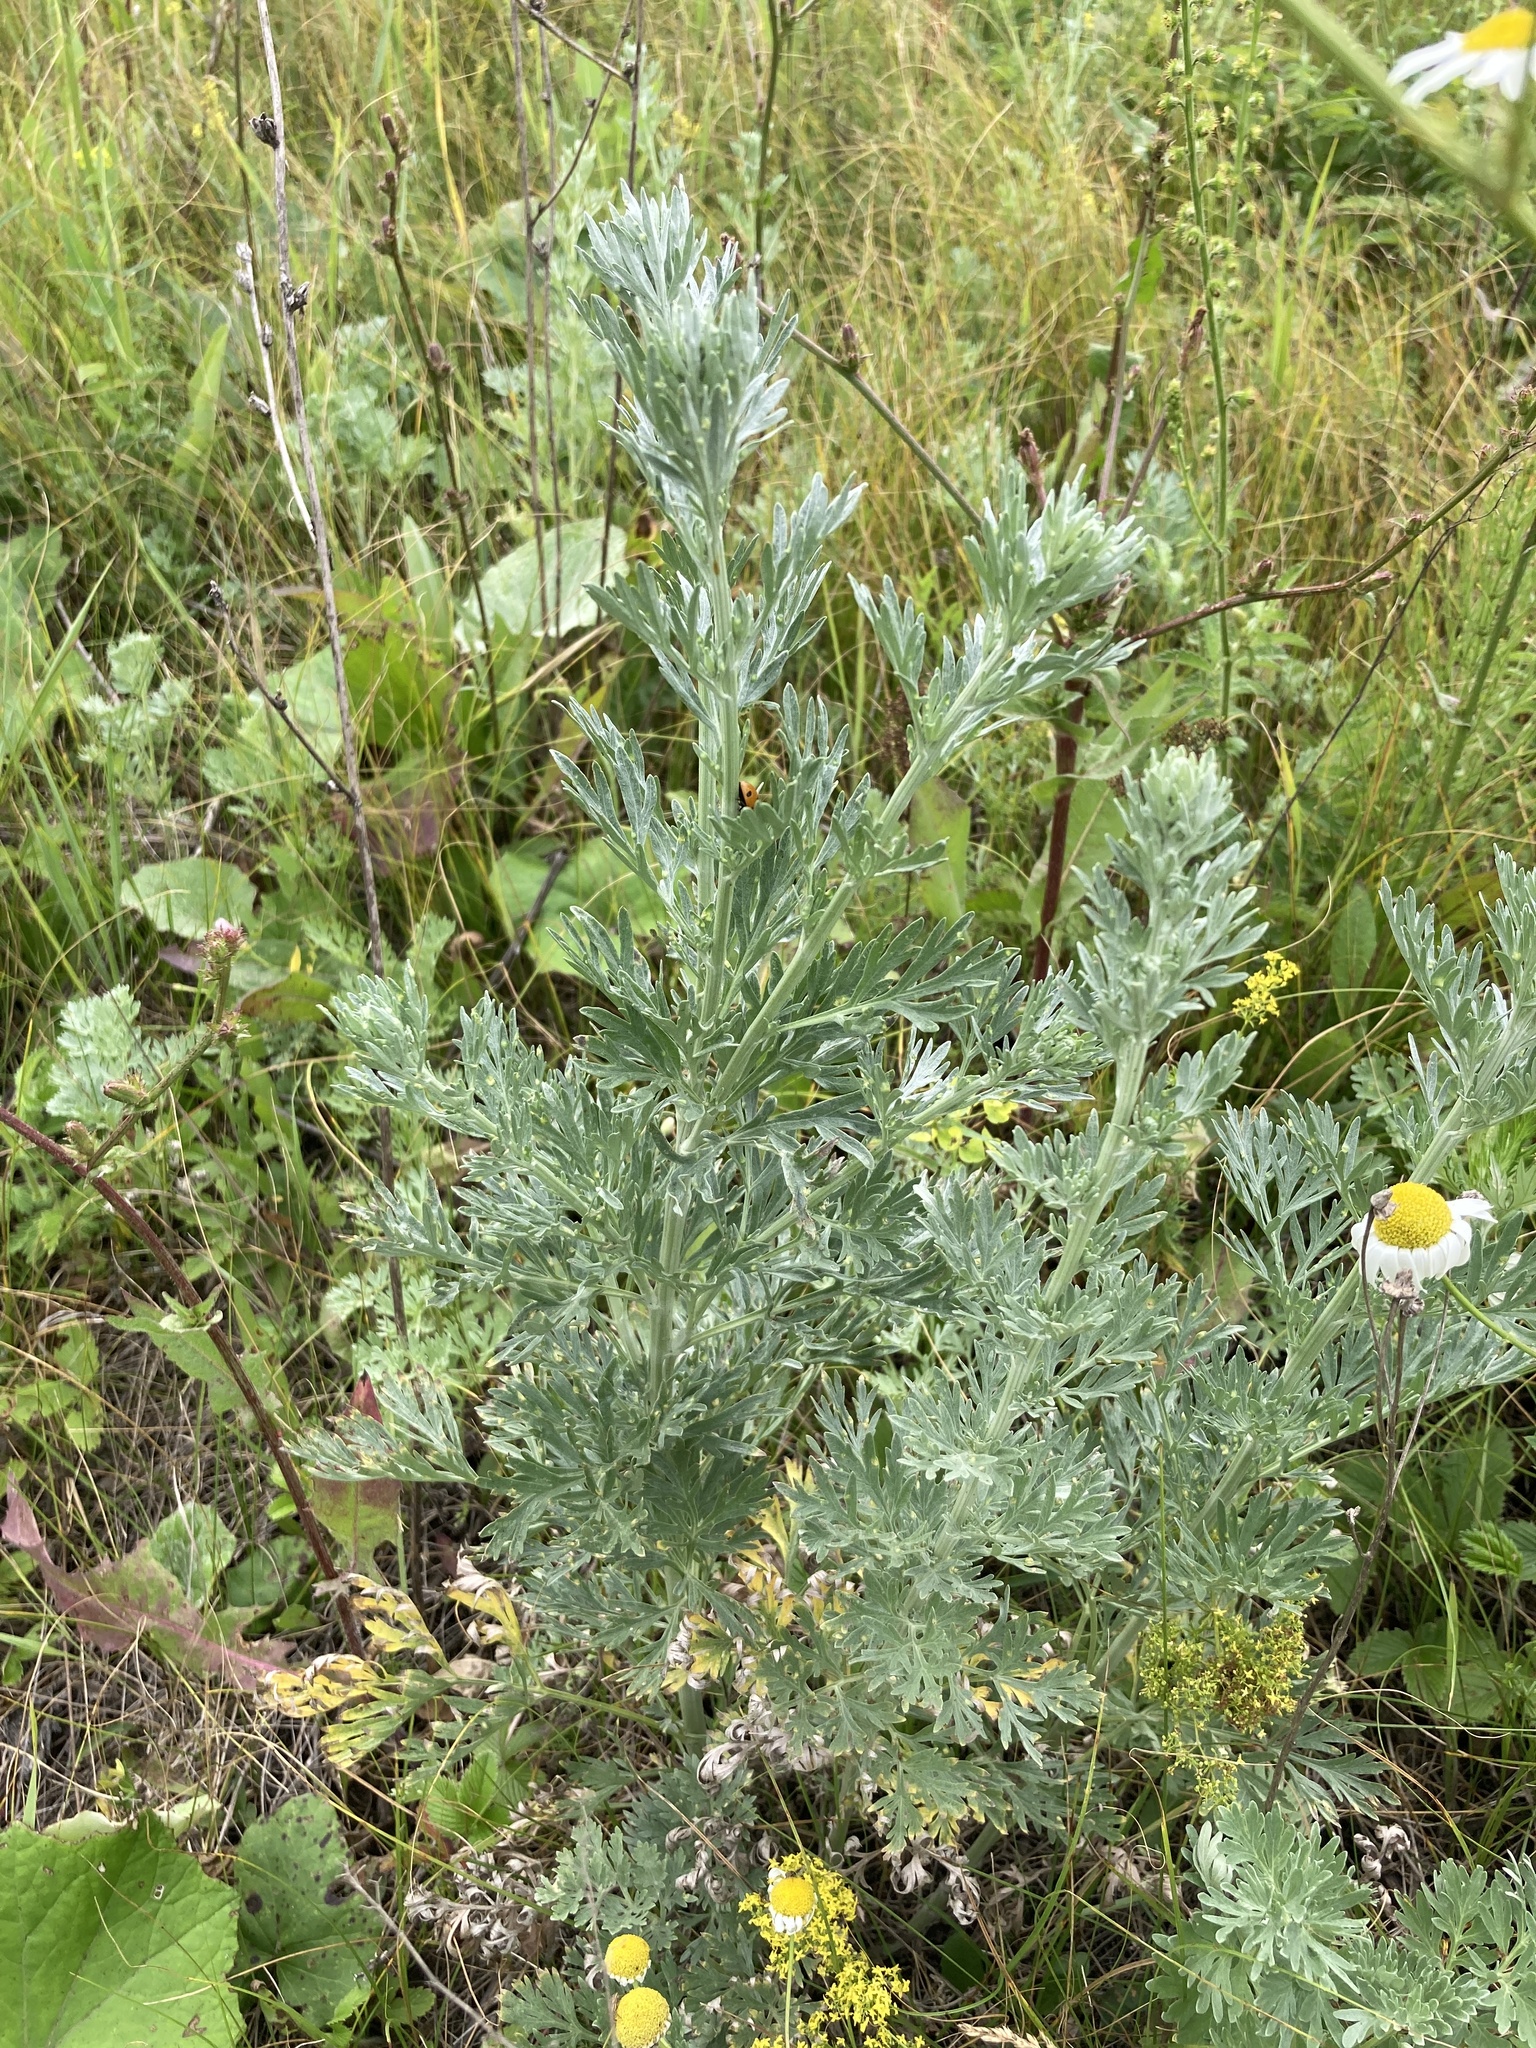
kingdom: Plantae
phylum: Tracheophyta
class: Magnoliopsida
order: Asterales
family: Asteraceae
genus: Artemisia
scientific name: Artemisia absinthium
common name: Wormwood
